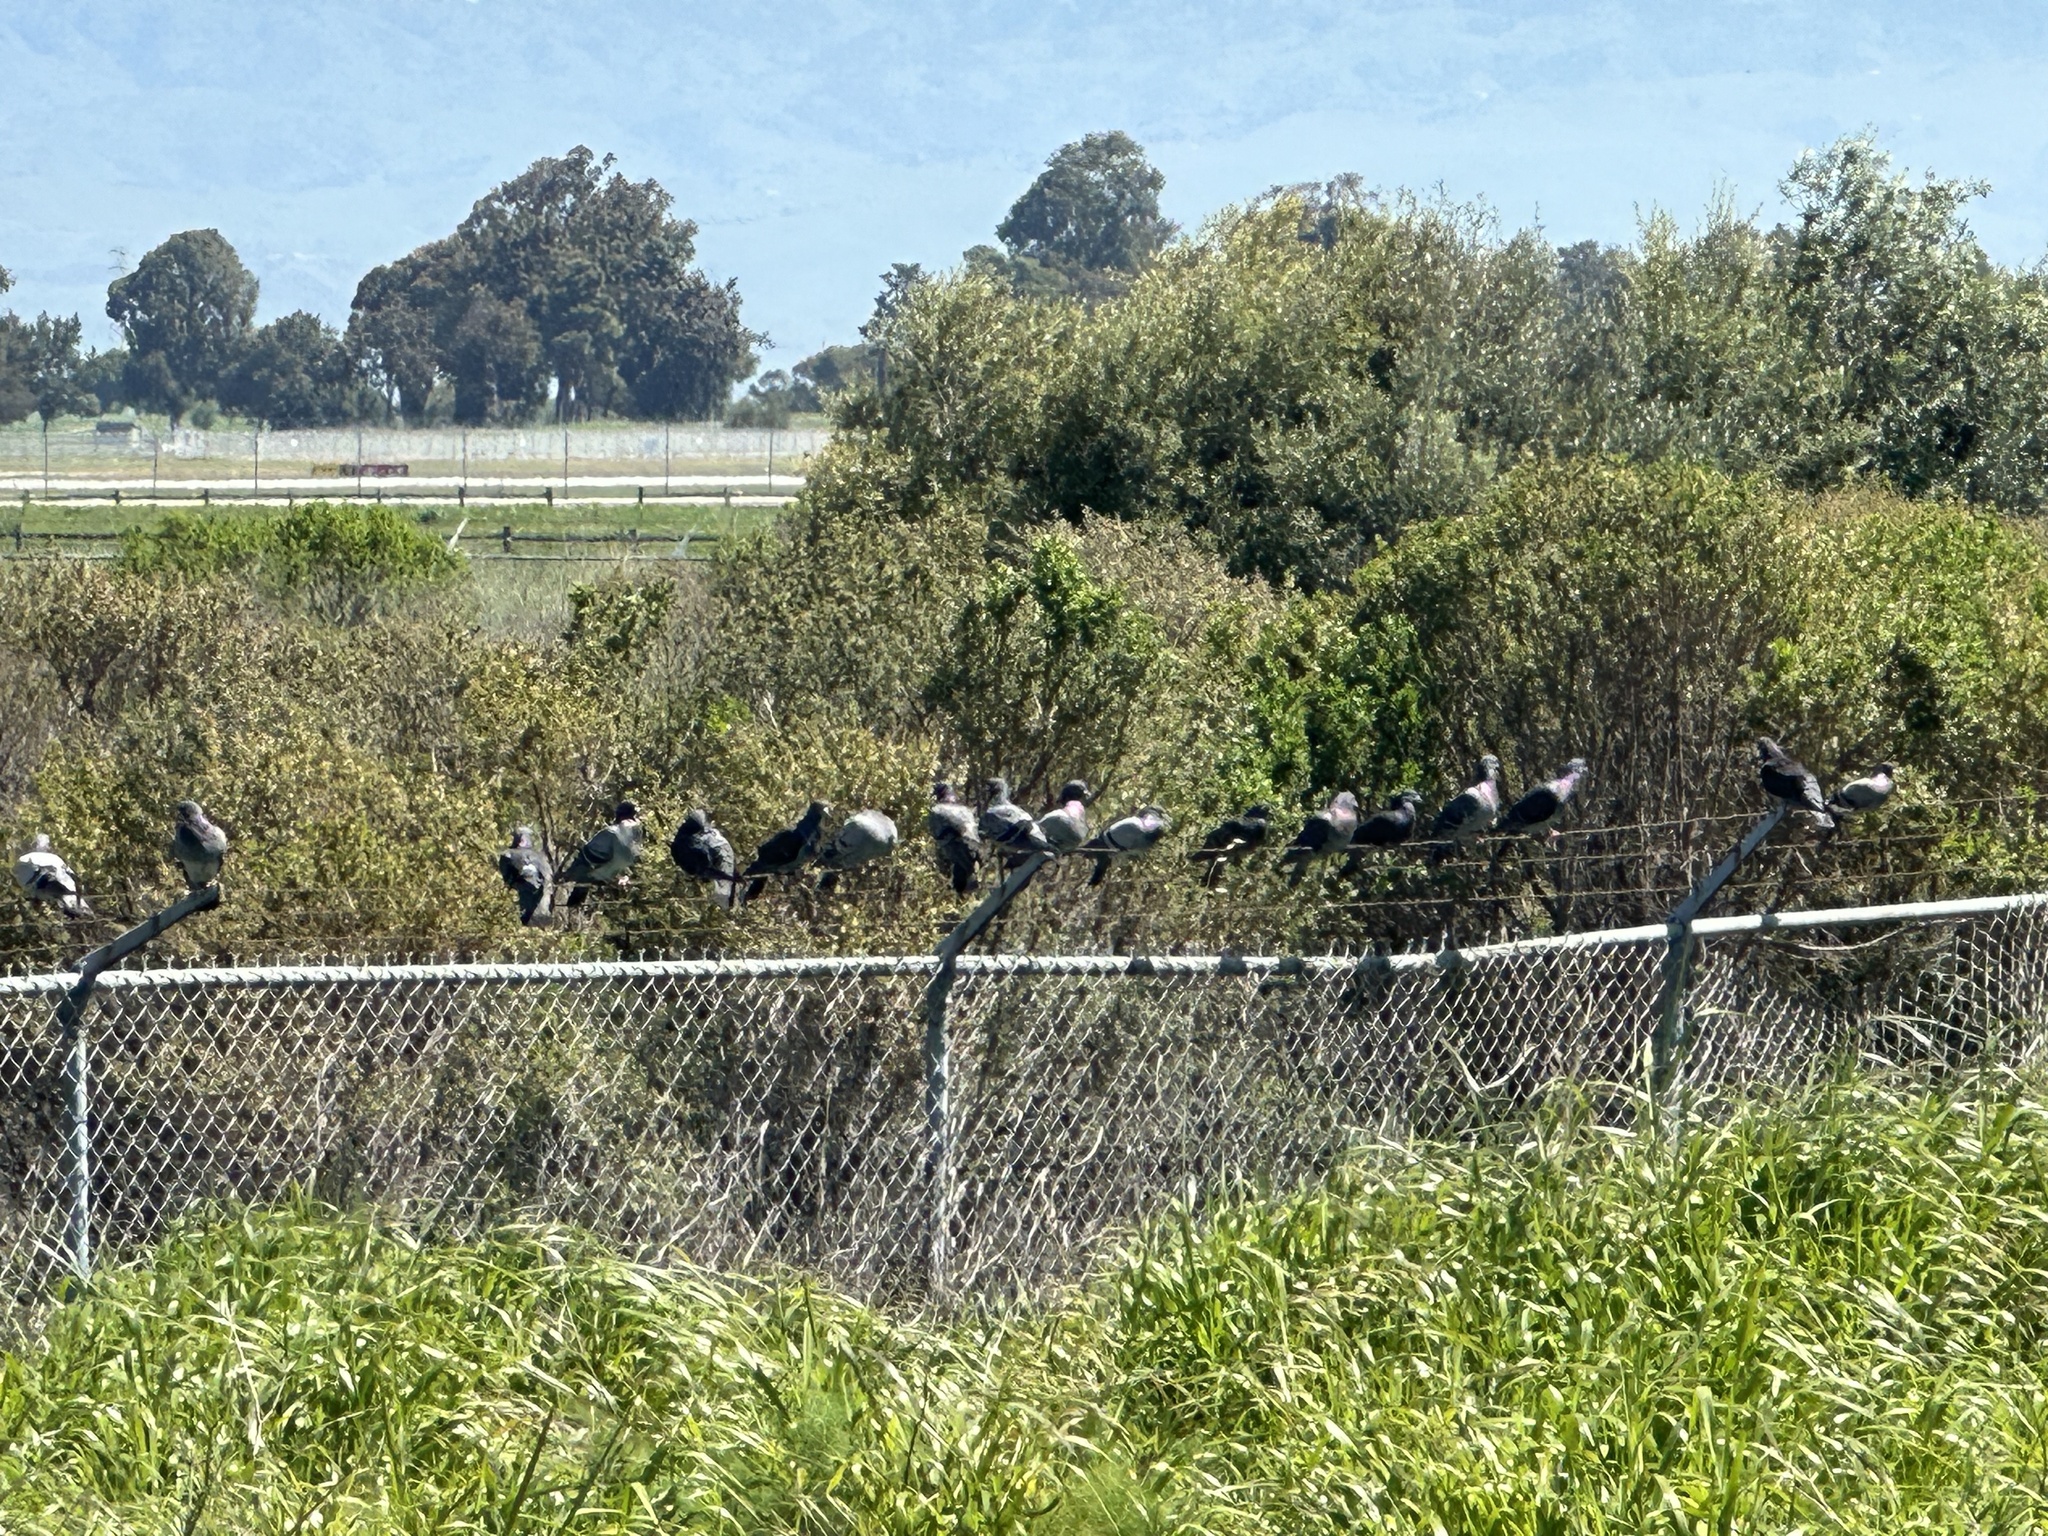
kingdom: Animalia
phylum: Chordata
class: Aves
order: Columbiformes
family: Columbidae
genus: Columba
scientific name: Columba livia
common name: Rock pigeon
